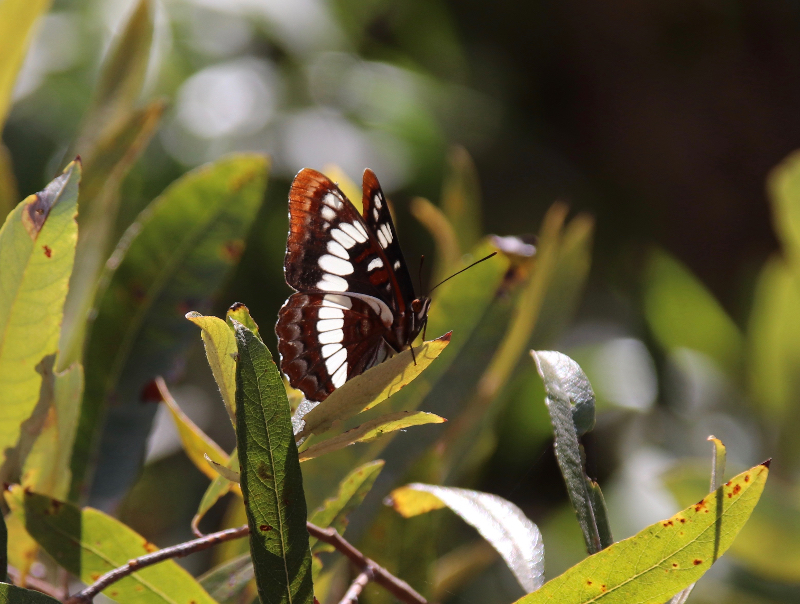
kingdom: Animalia
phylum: Arthropoda
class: Insecta
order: Lepidoptera
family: Nymphalidae
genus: Limenitis
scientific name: Limenitis lorquini
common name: Lorquin's admiral
